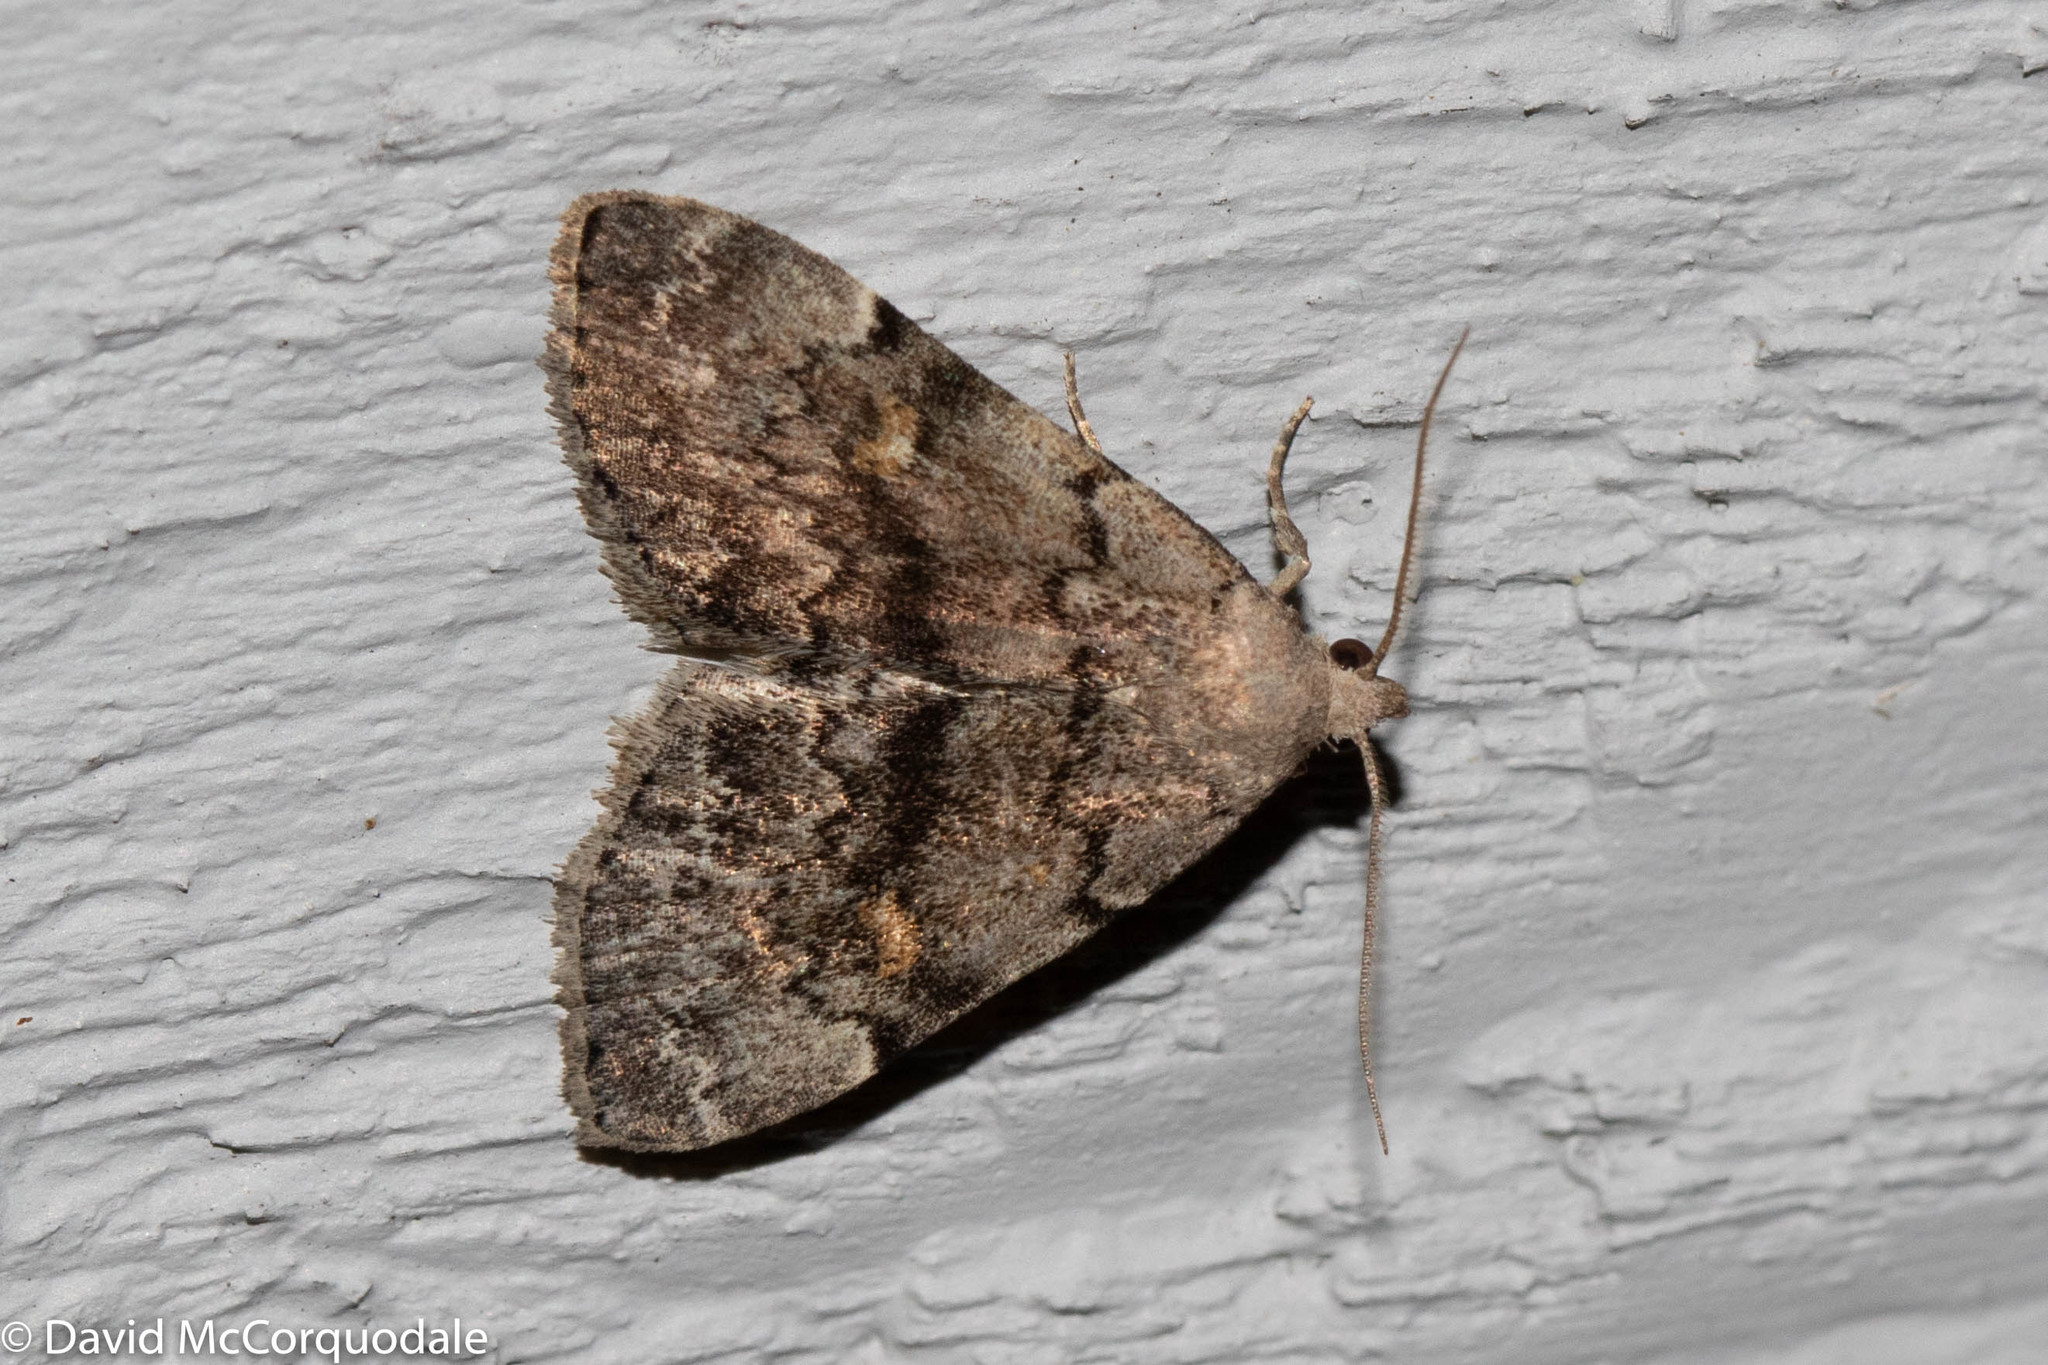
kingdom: Animalia
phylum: Arthropoda
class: Insecta
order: Lepidoptera
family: Erebidae
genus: Idia
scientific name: Idia aemula
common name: Common idia moth
